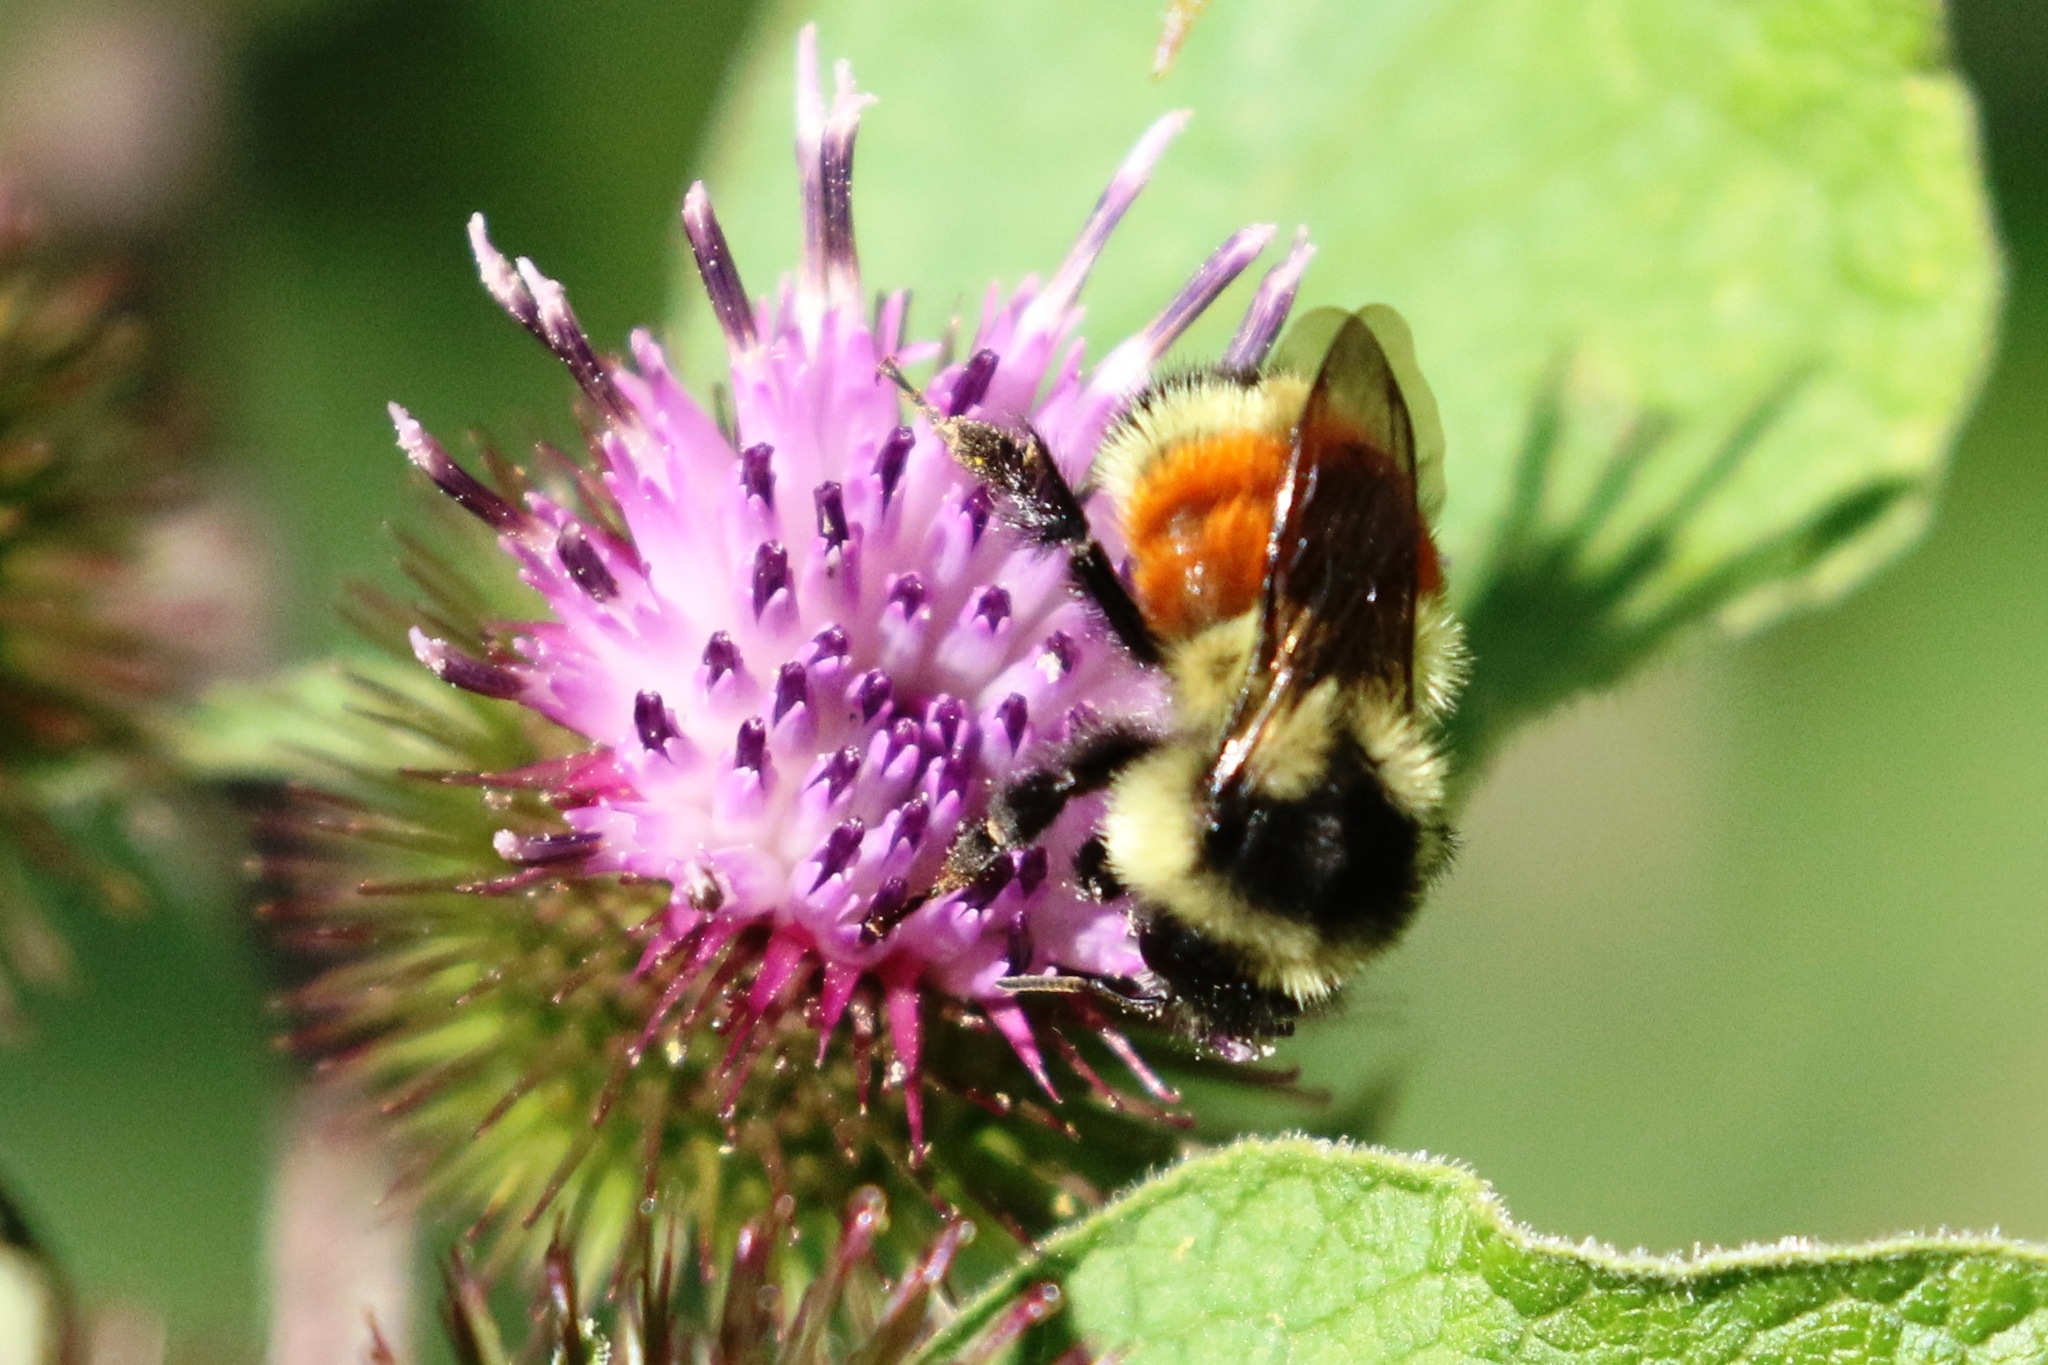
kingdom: Animalia
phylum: Arthropoda
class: Insecta
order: Hymenoptera
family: Apidae
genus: Bombus
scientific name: Bombus ternarius
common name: Tri-colored bumble bee
